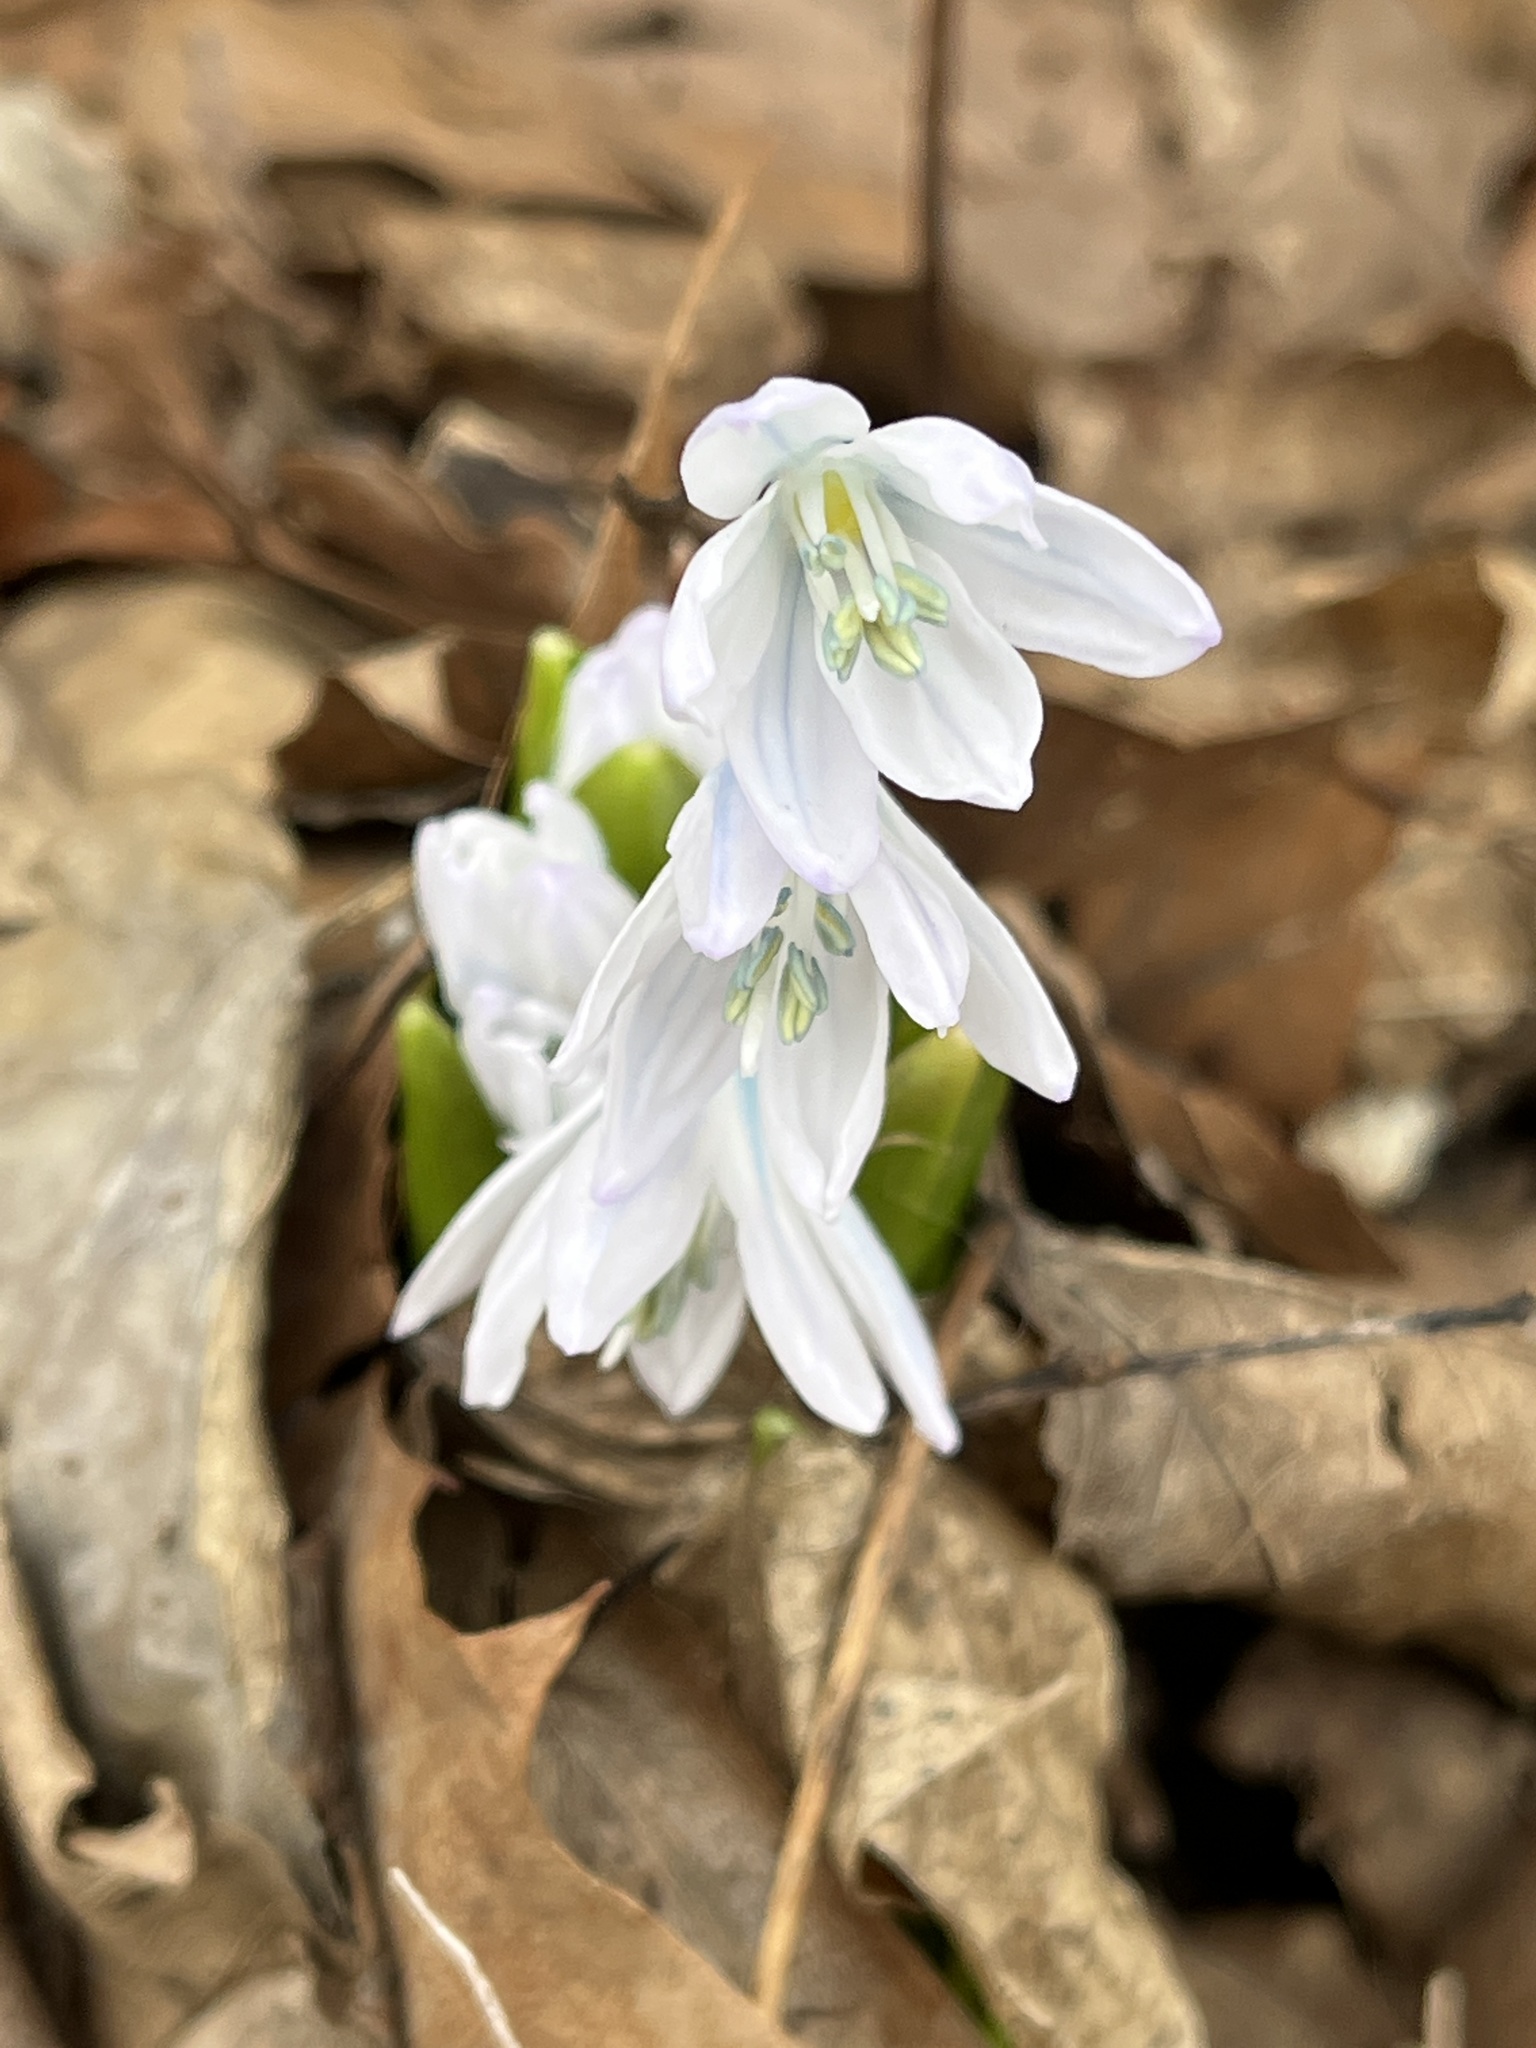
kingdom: Plantae
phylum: Tracheophyta
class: Liliopsida
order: Asparagales
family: Asparagaceae
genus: Scilla
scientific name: Scilla mischtschenkoana
